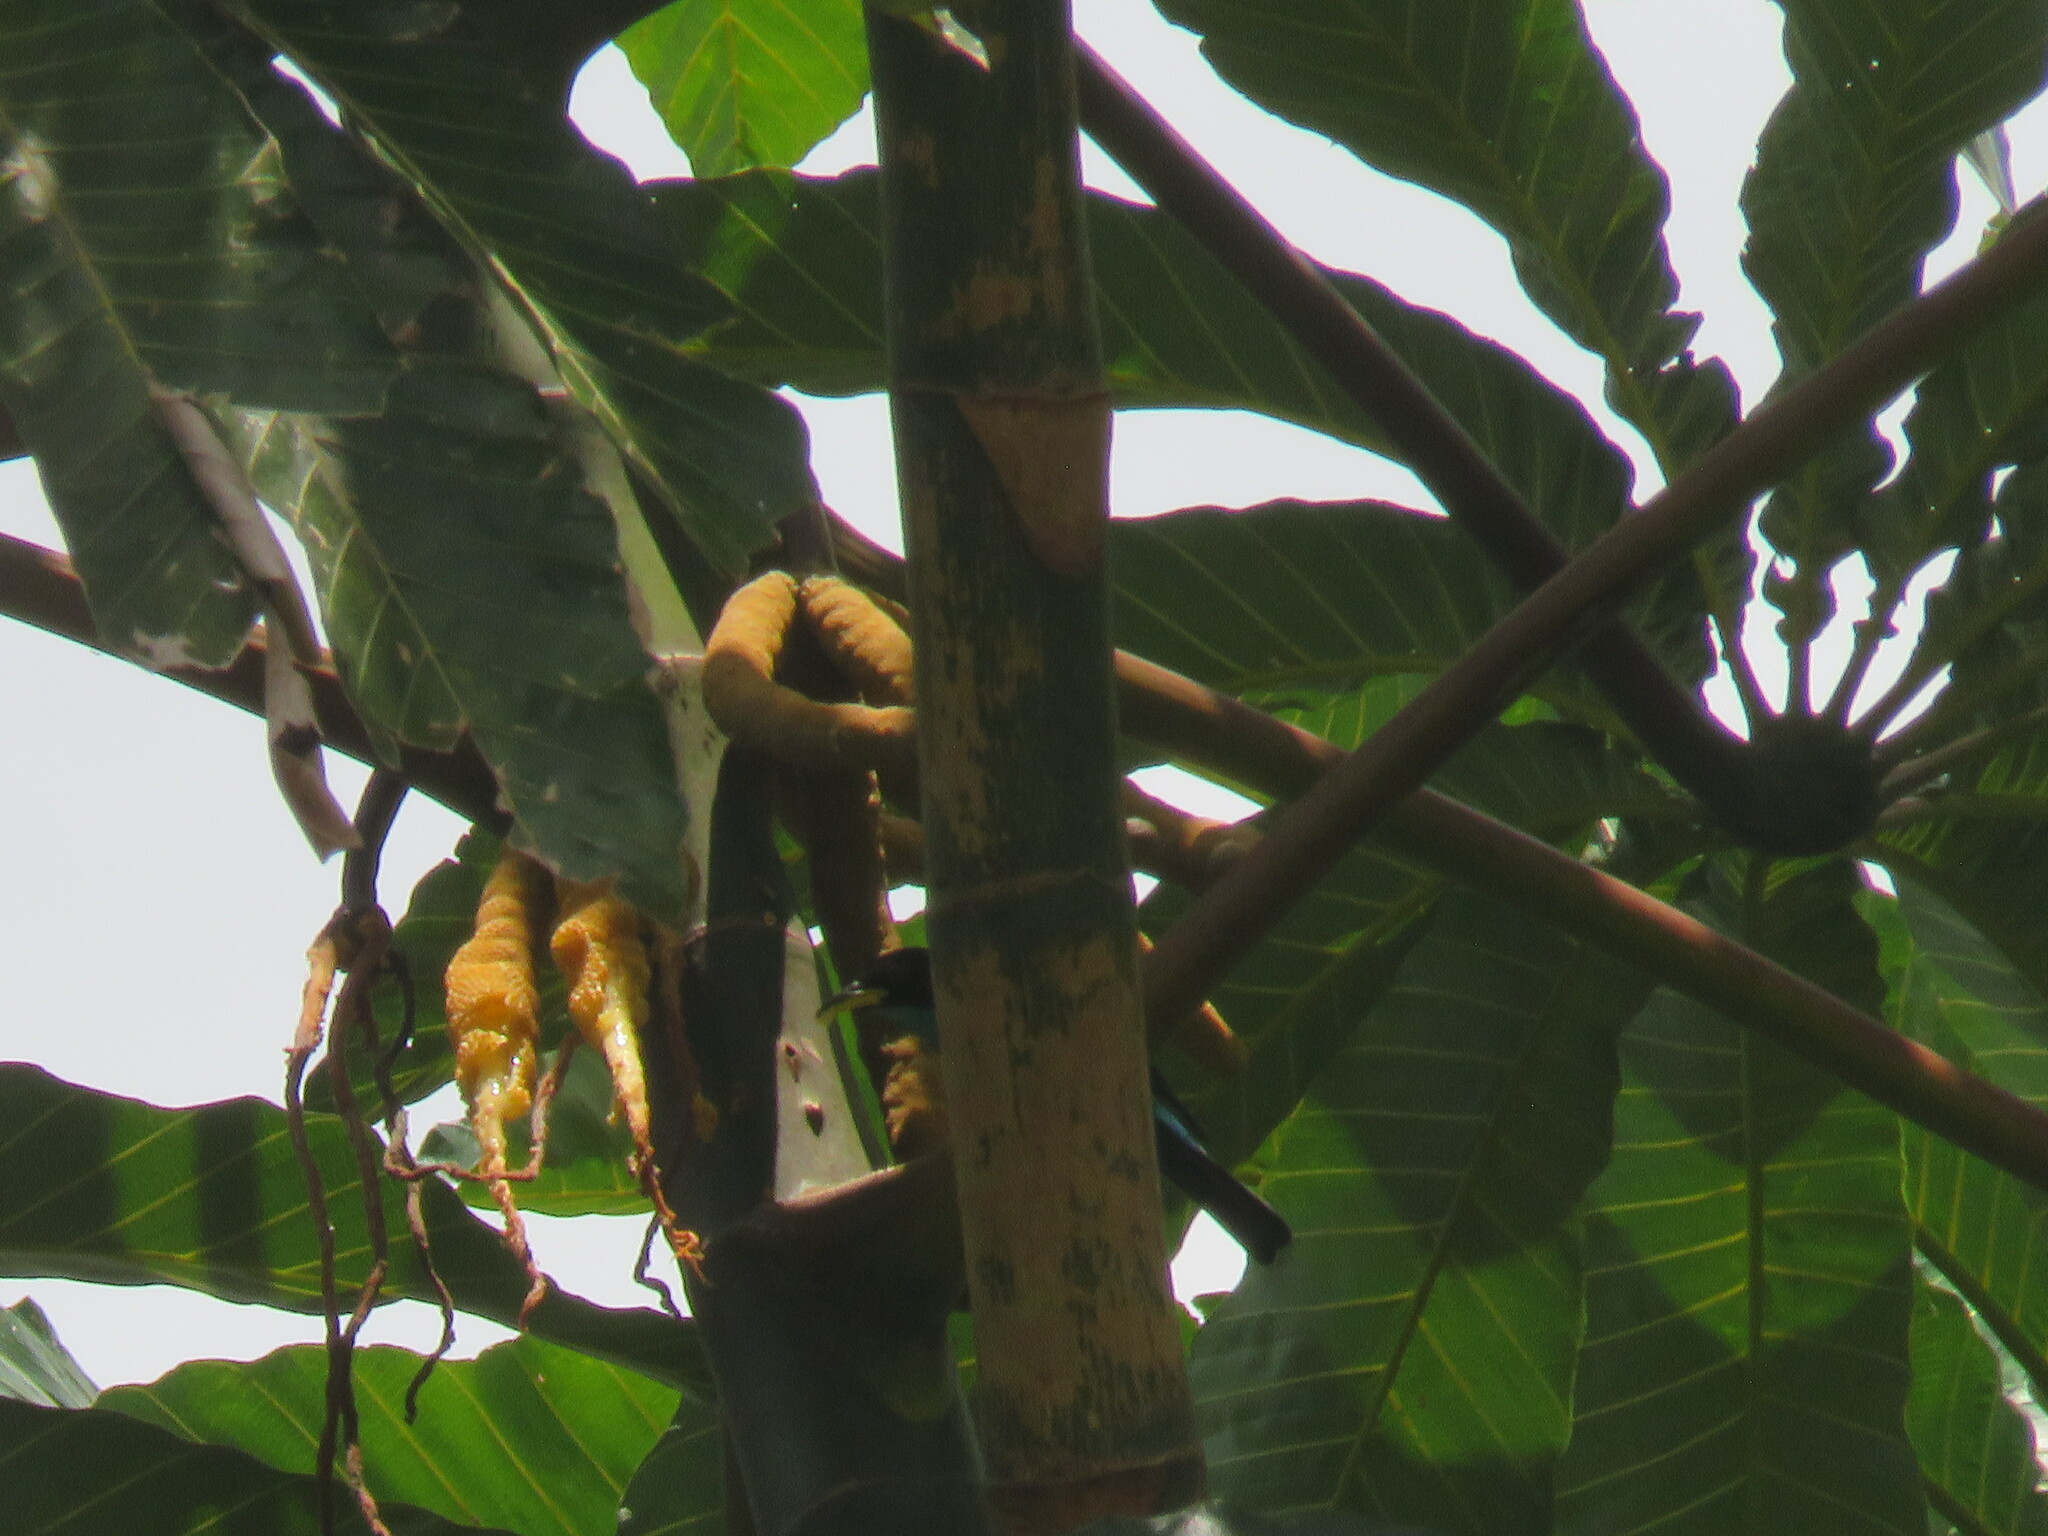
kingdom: Animalia
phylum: Chordata
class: Aves
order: Passeriformes
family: Thraupidae
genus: Chlorophanes
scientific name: Chlorophanes spiza
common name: Green honeycreeper
